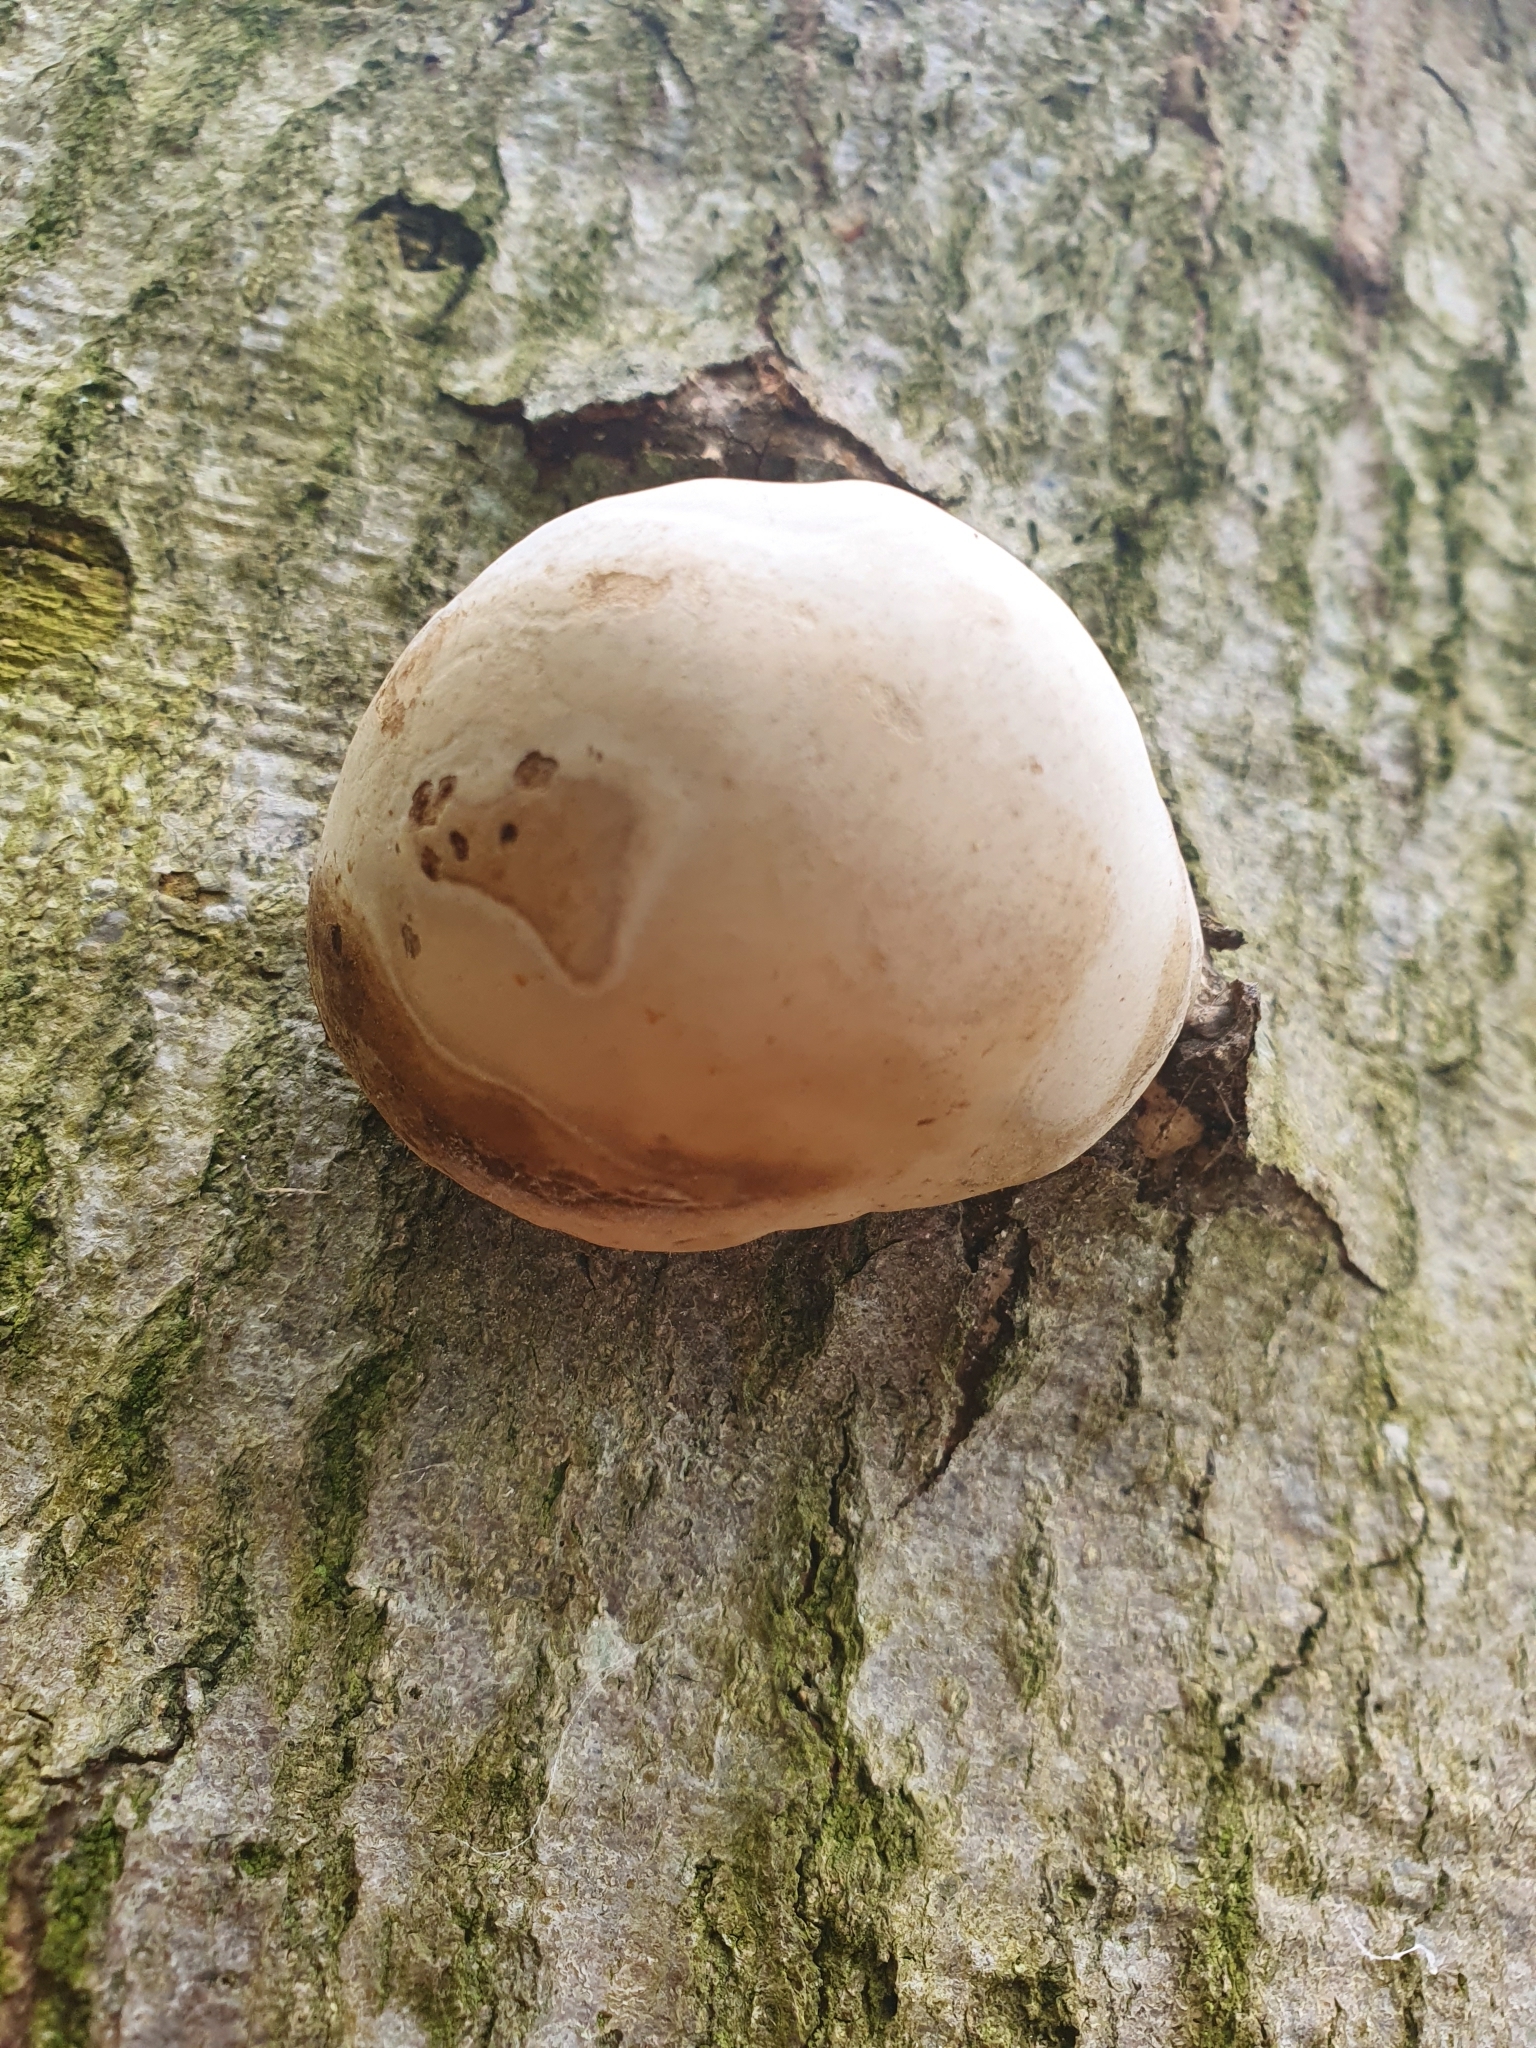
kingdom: Fungi
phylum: Basidiomycota
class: Agaricomycetes
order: Polyporales
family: Polyporaceae
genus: Fomes
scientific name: Fomes fomentarius
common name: Hoof fungus
